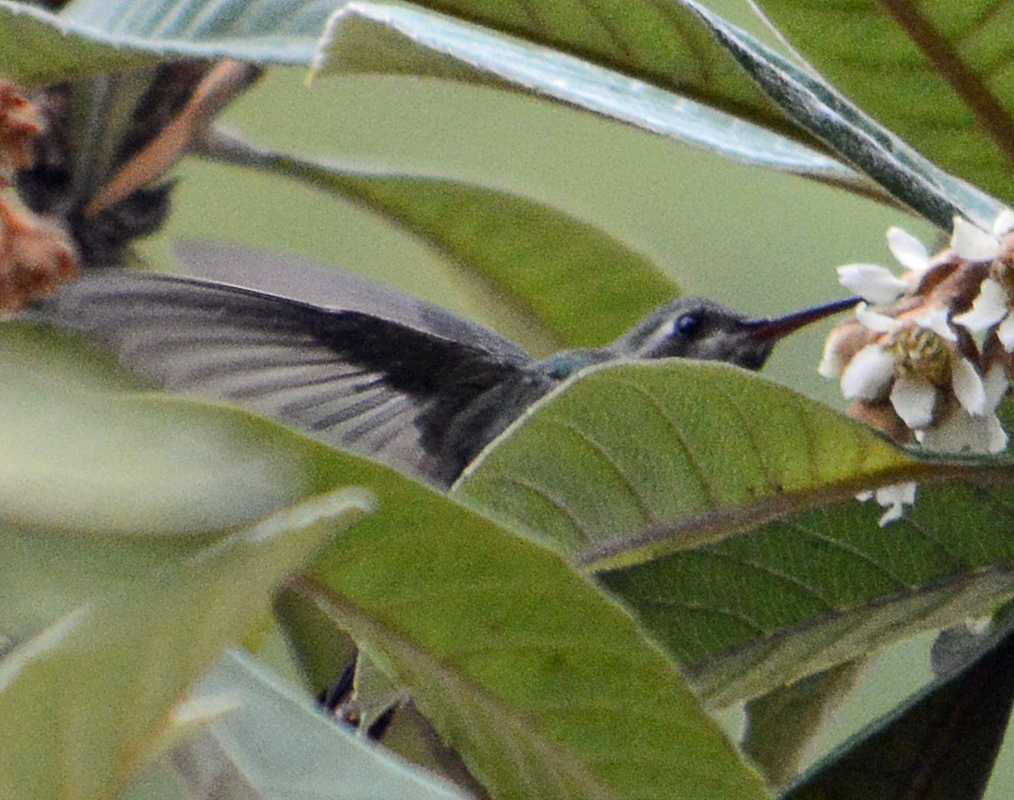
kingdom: Animalia
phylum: Chordata
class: Aves
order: Apodiformes
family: Trochilidae
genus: Cynanthus
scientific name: Cynanthus latirostris
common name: Broad-billed hummingbird
